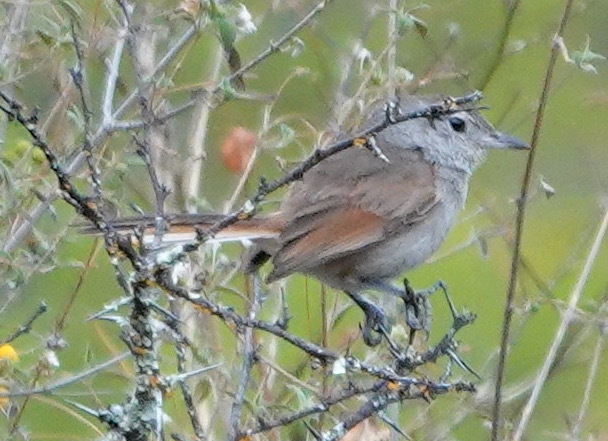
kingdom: Animalia
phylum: Chordata
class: Aves
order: Passeriformes
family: Furnariidae
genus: Asthenes
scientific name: Asthenes dorbignyi
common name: Rusty-vented canastero
